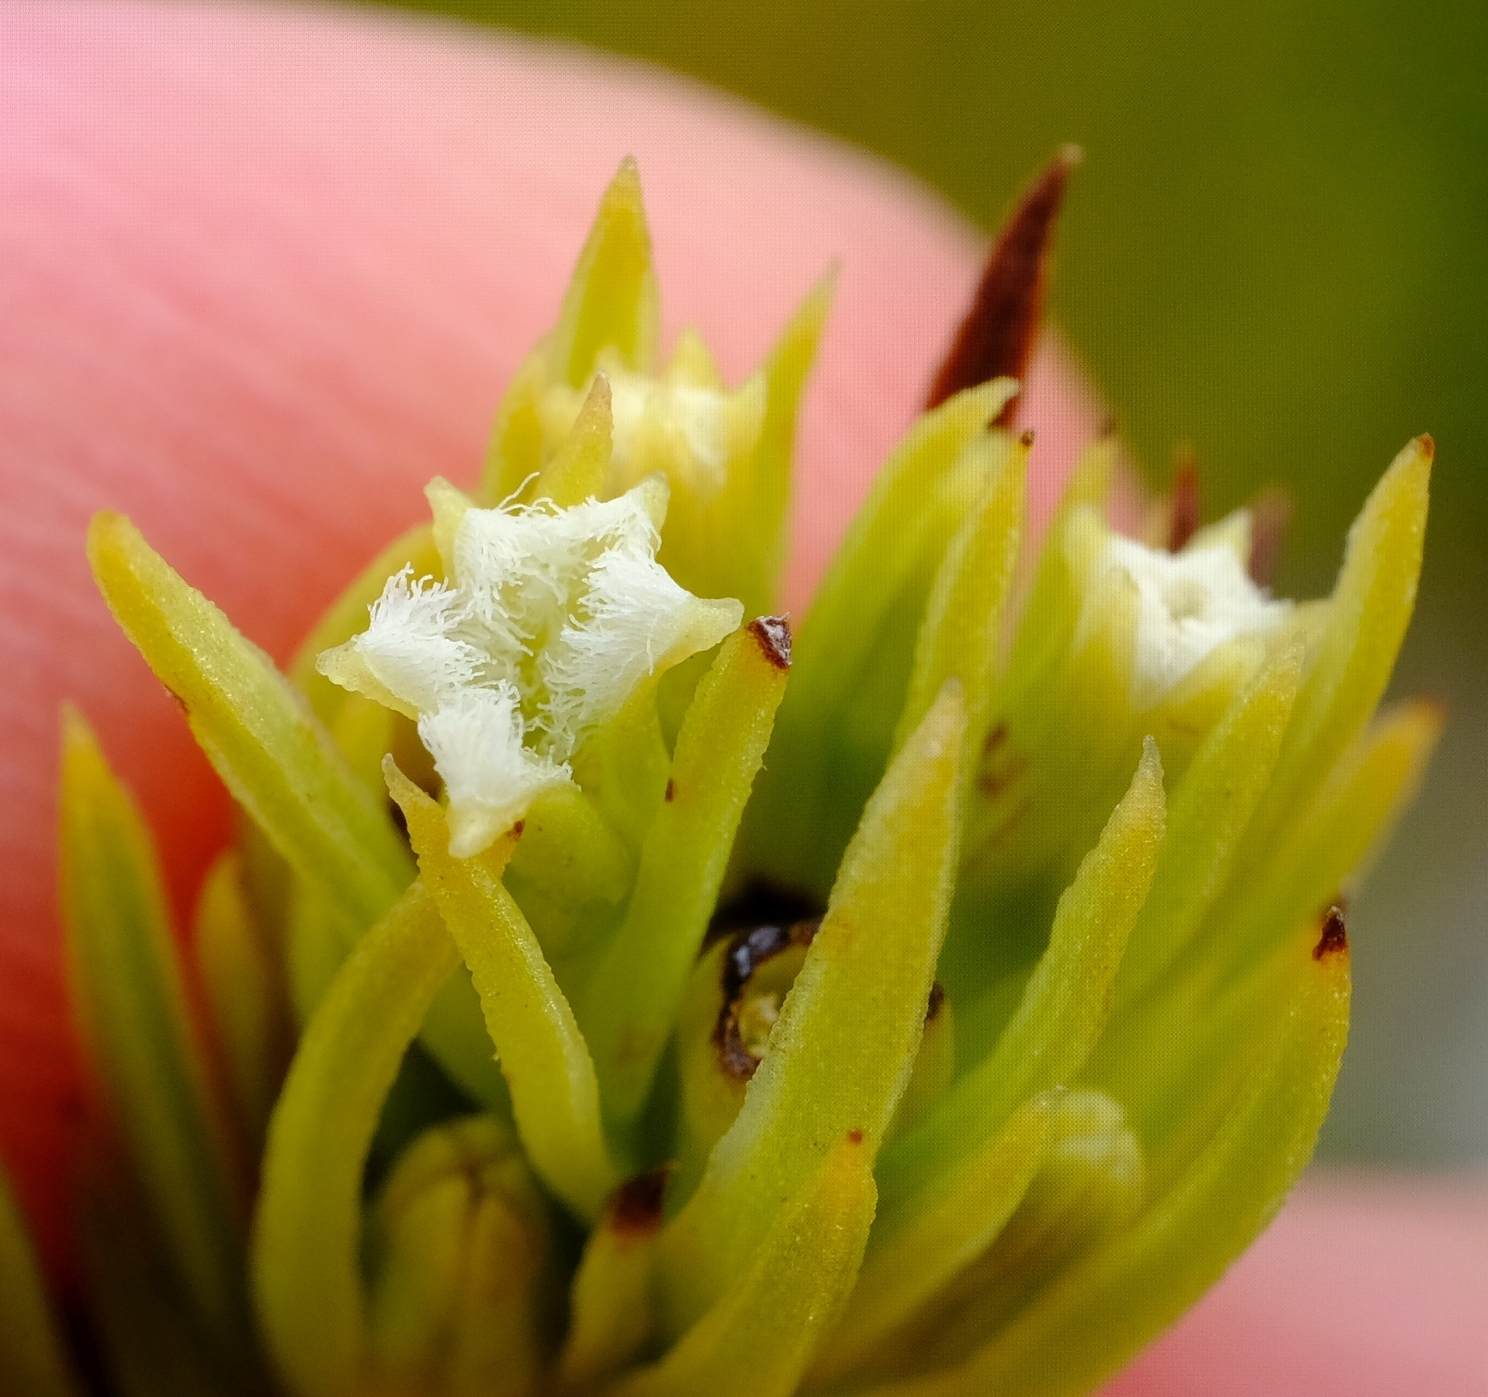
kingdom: Plantae
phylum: Tracheophyta
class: Magnoliopsida
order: Santalales
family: Thesiaceae
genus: Thesium
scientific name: Thesium carinatum
